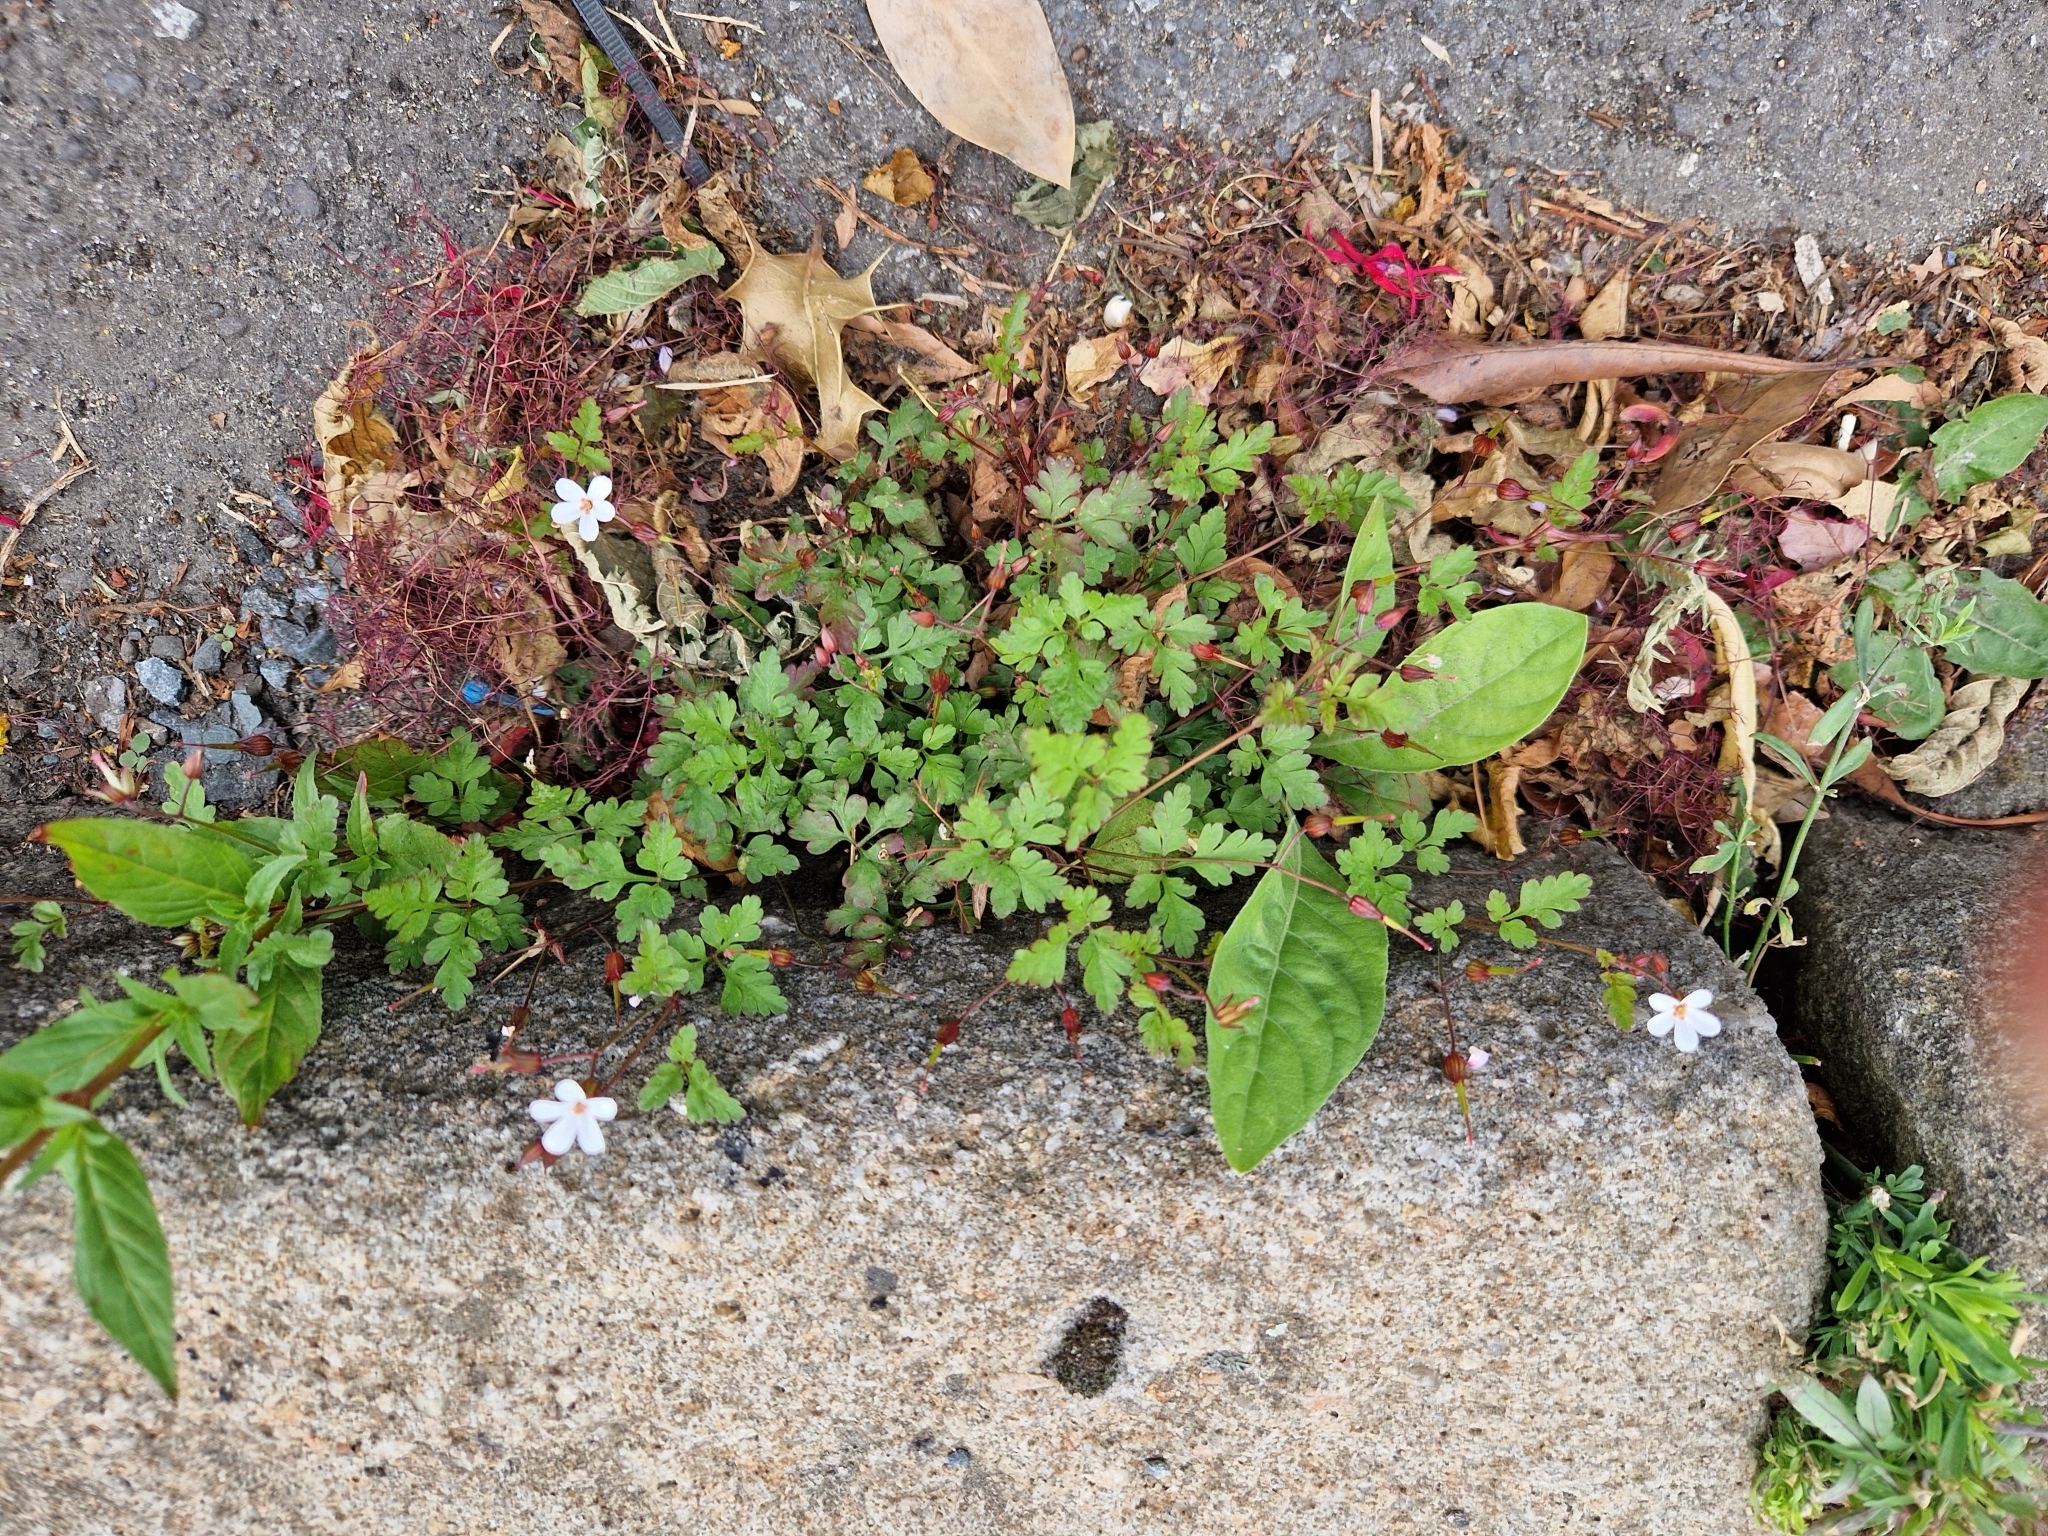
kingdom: Plantae
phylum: Tracheophyta
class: Magnoliopsida
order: Geraniales
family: Geraniaceae
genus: Geranium
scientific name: Geranium robertianum
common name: Herb-robert
